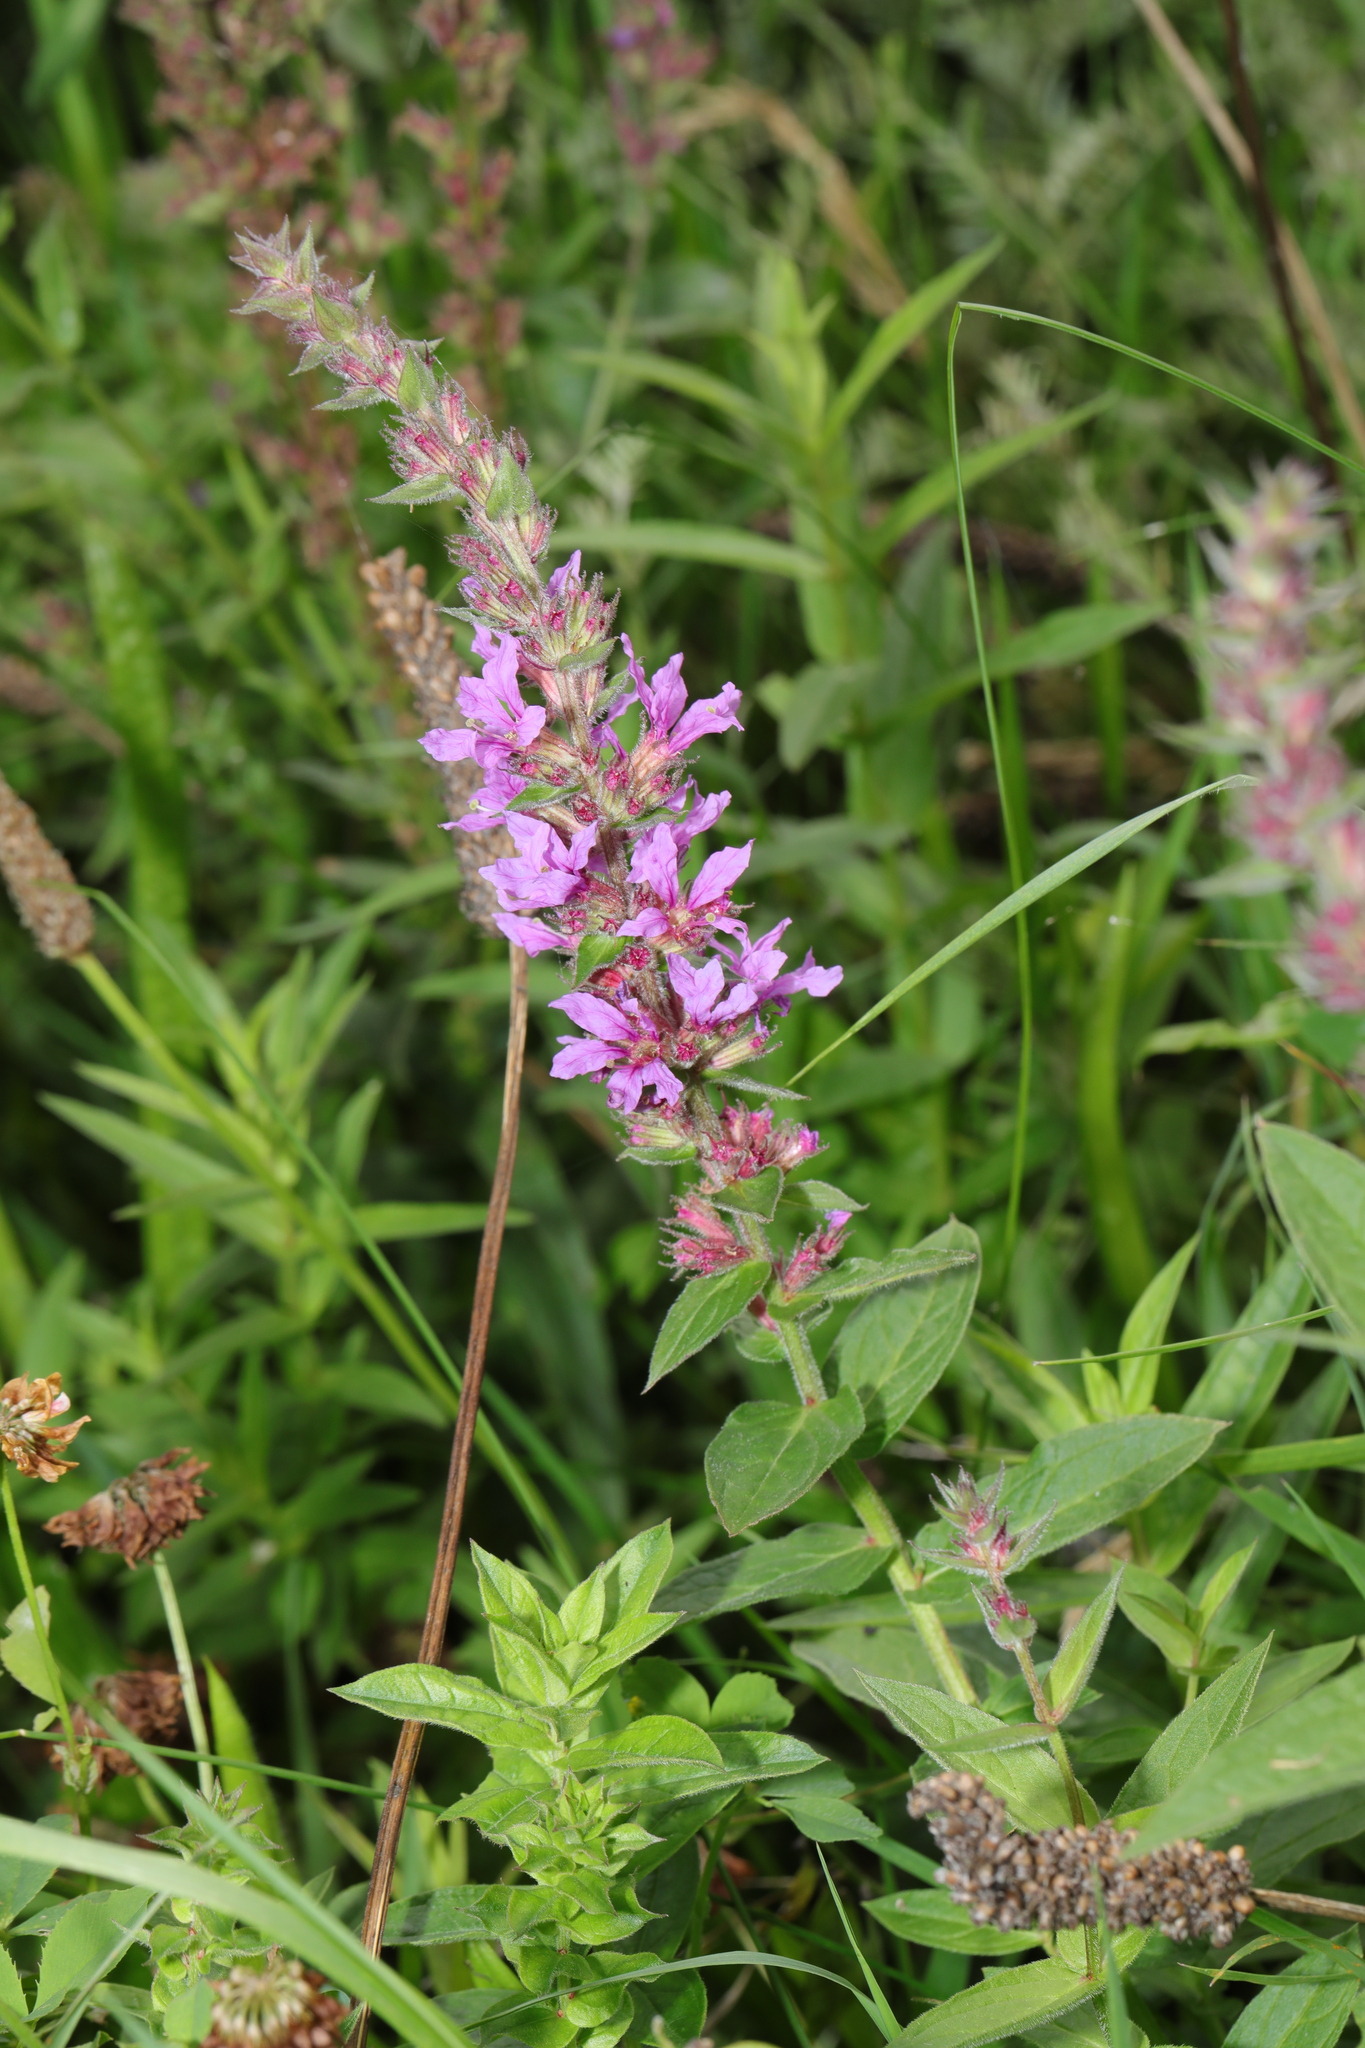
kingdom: Plantae
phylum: Tracheophyta
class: Magnoliopsida
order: Myrtales
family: Lythraceae
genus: Lythrum
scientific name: Lythrum salicaria
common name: Purple loosestrife
